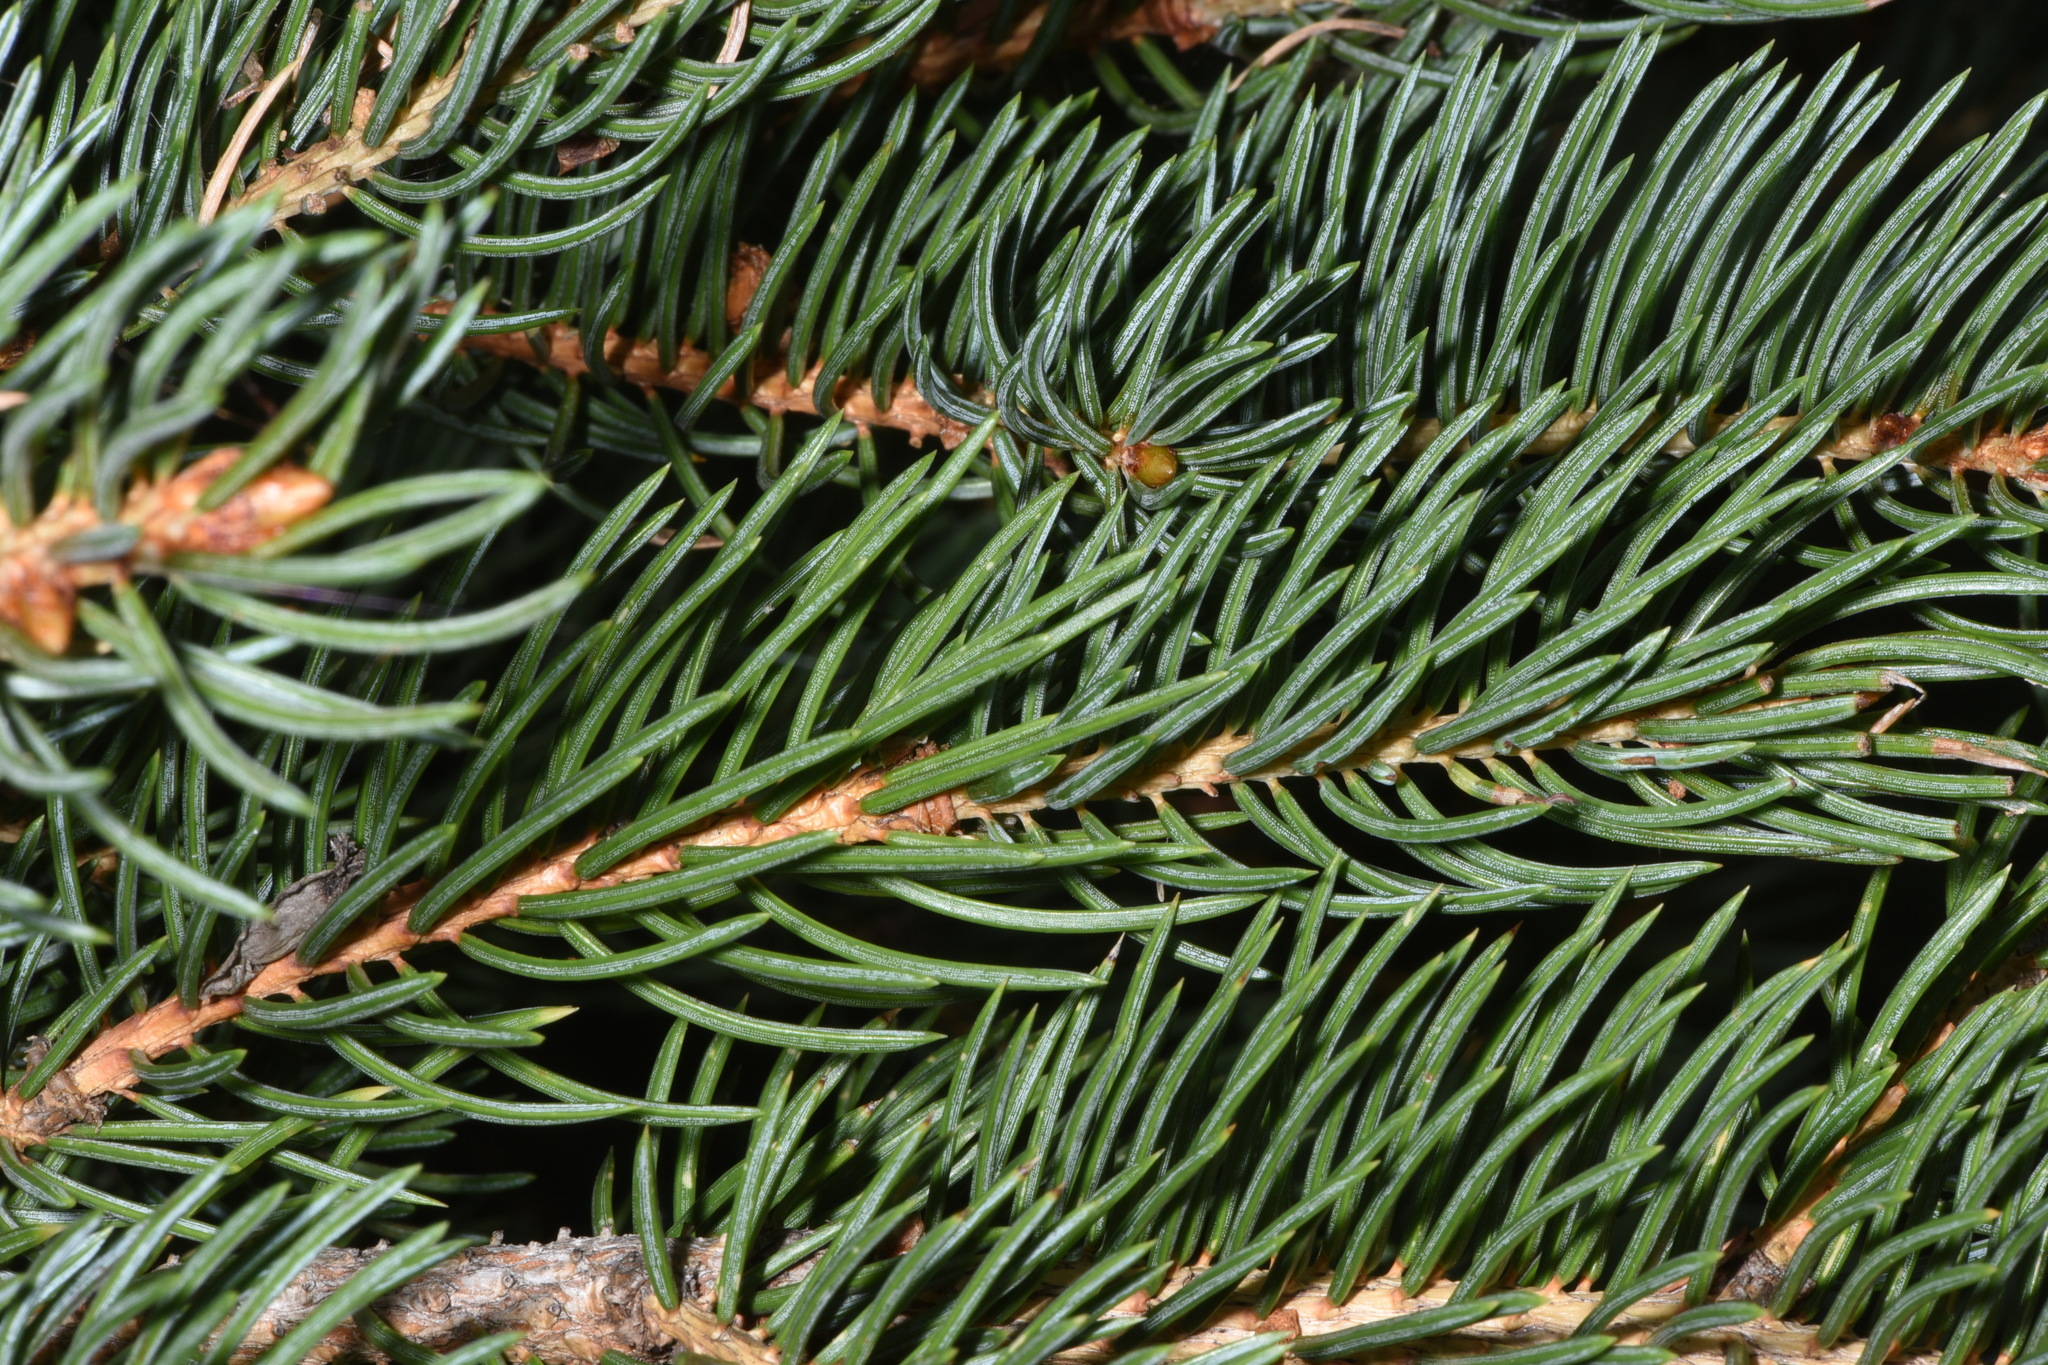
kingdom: Plantae
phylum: Tracheophyta
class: Pinopsida
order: Pinales
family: Pinaceae
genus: Picea
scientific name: Picea engelmannii
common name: Engelmann spruce
